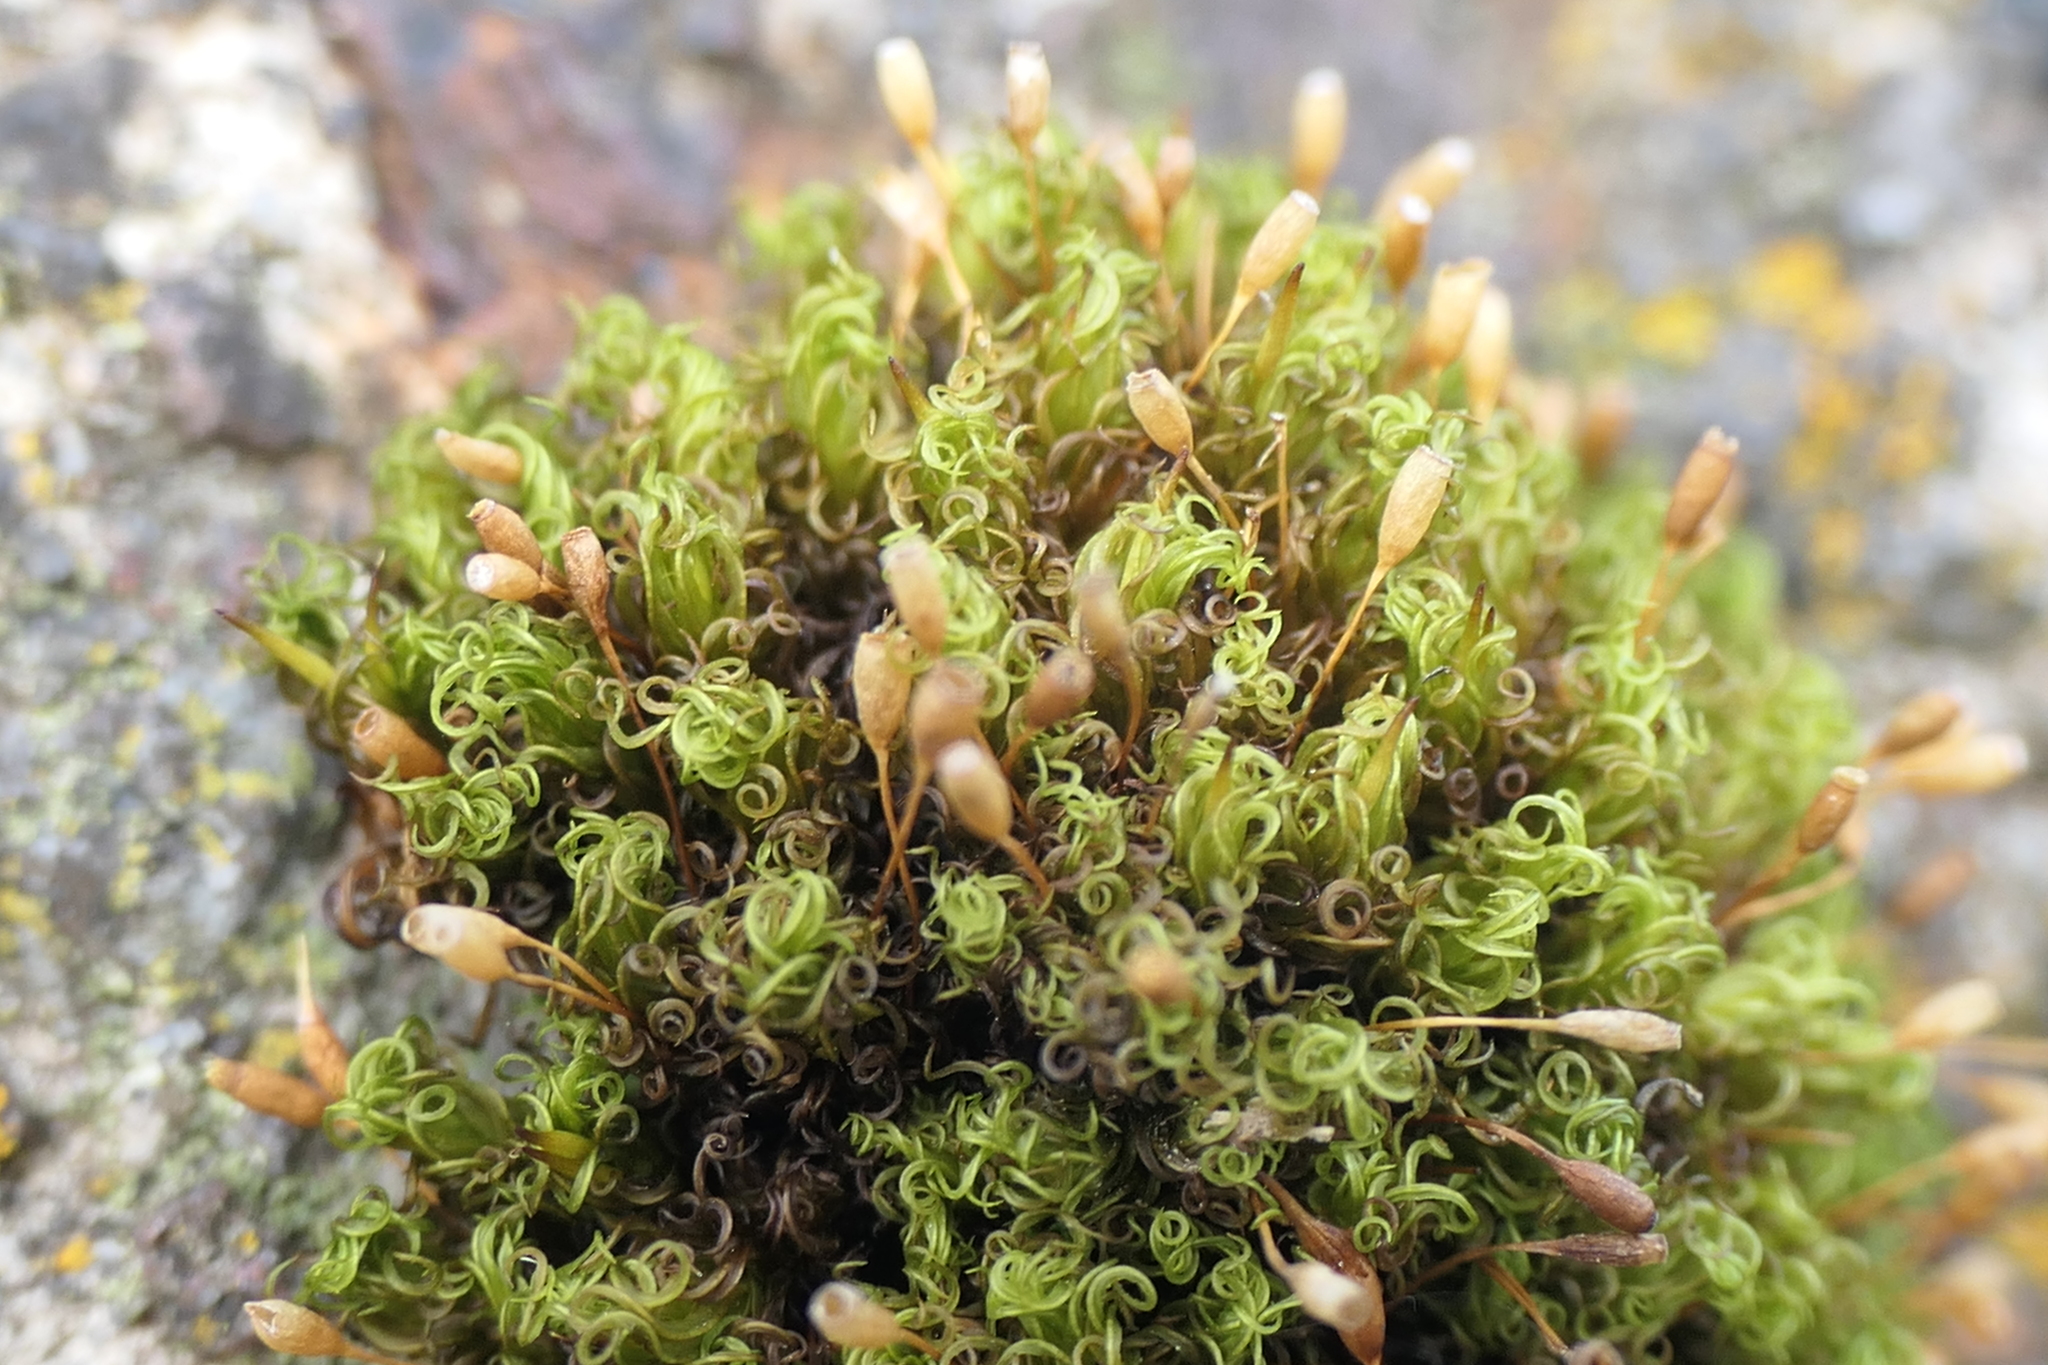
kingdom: Plantae
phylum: Bryophyta
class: Bryopsida
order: Grimmiales
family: Ptychomitriaceae
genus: Ptychomitrium
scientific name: Ptychomitrium polyphyllum
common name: Greater pincushion
